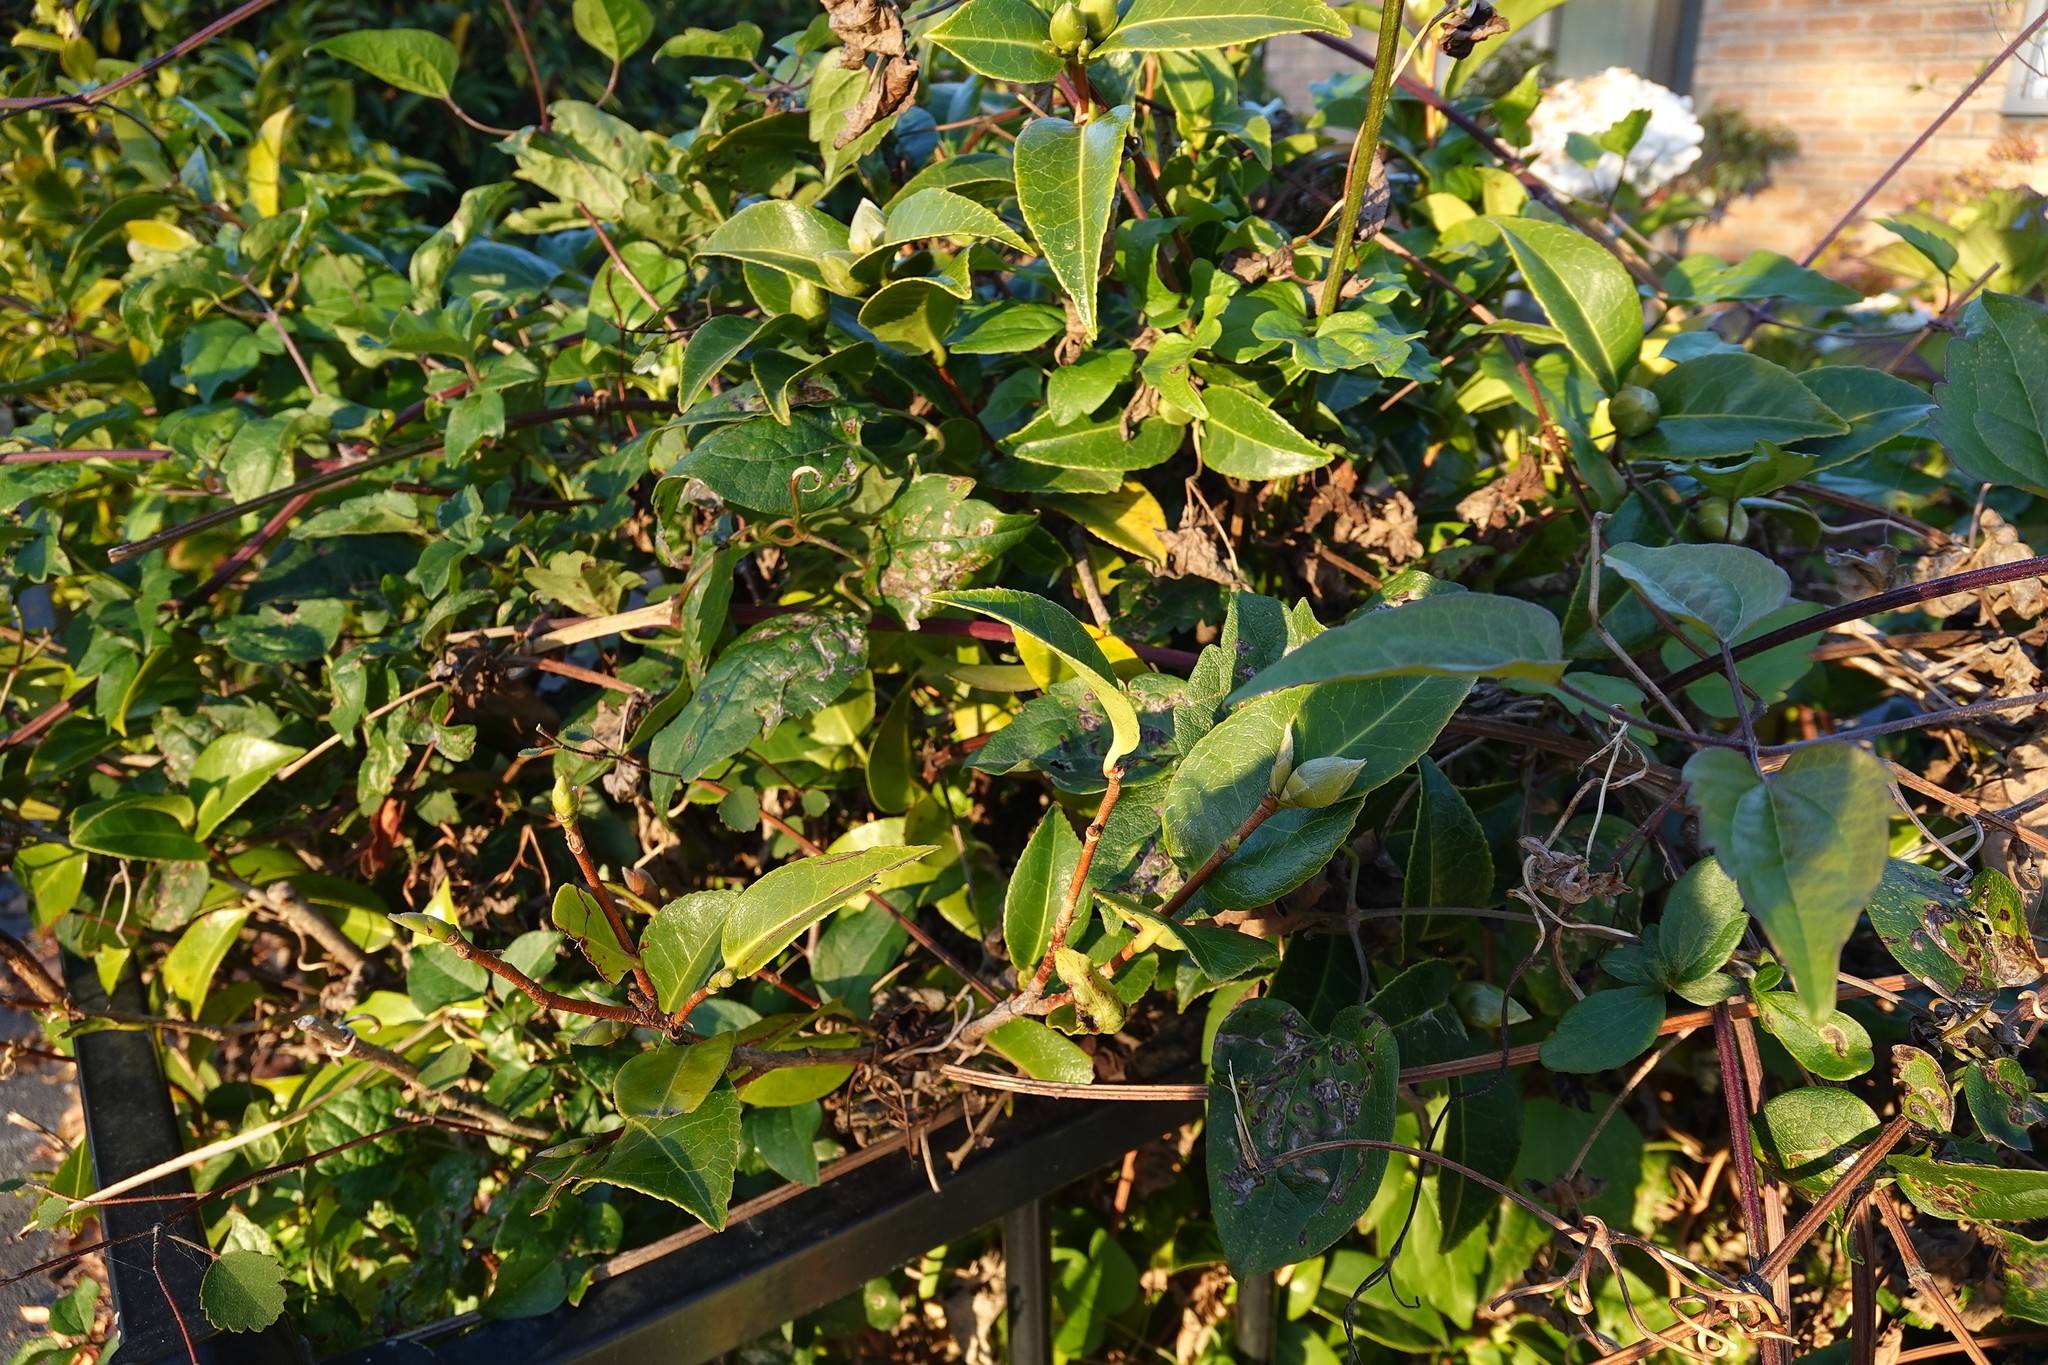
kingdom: Plantae
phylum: Tracheophyta
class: Magnoliopsida
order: Ranunculales
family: Ranunculaceae
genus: Clematis
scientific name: Clematis vitalba
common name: Evergreen clematis
